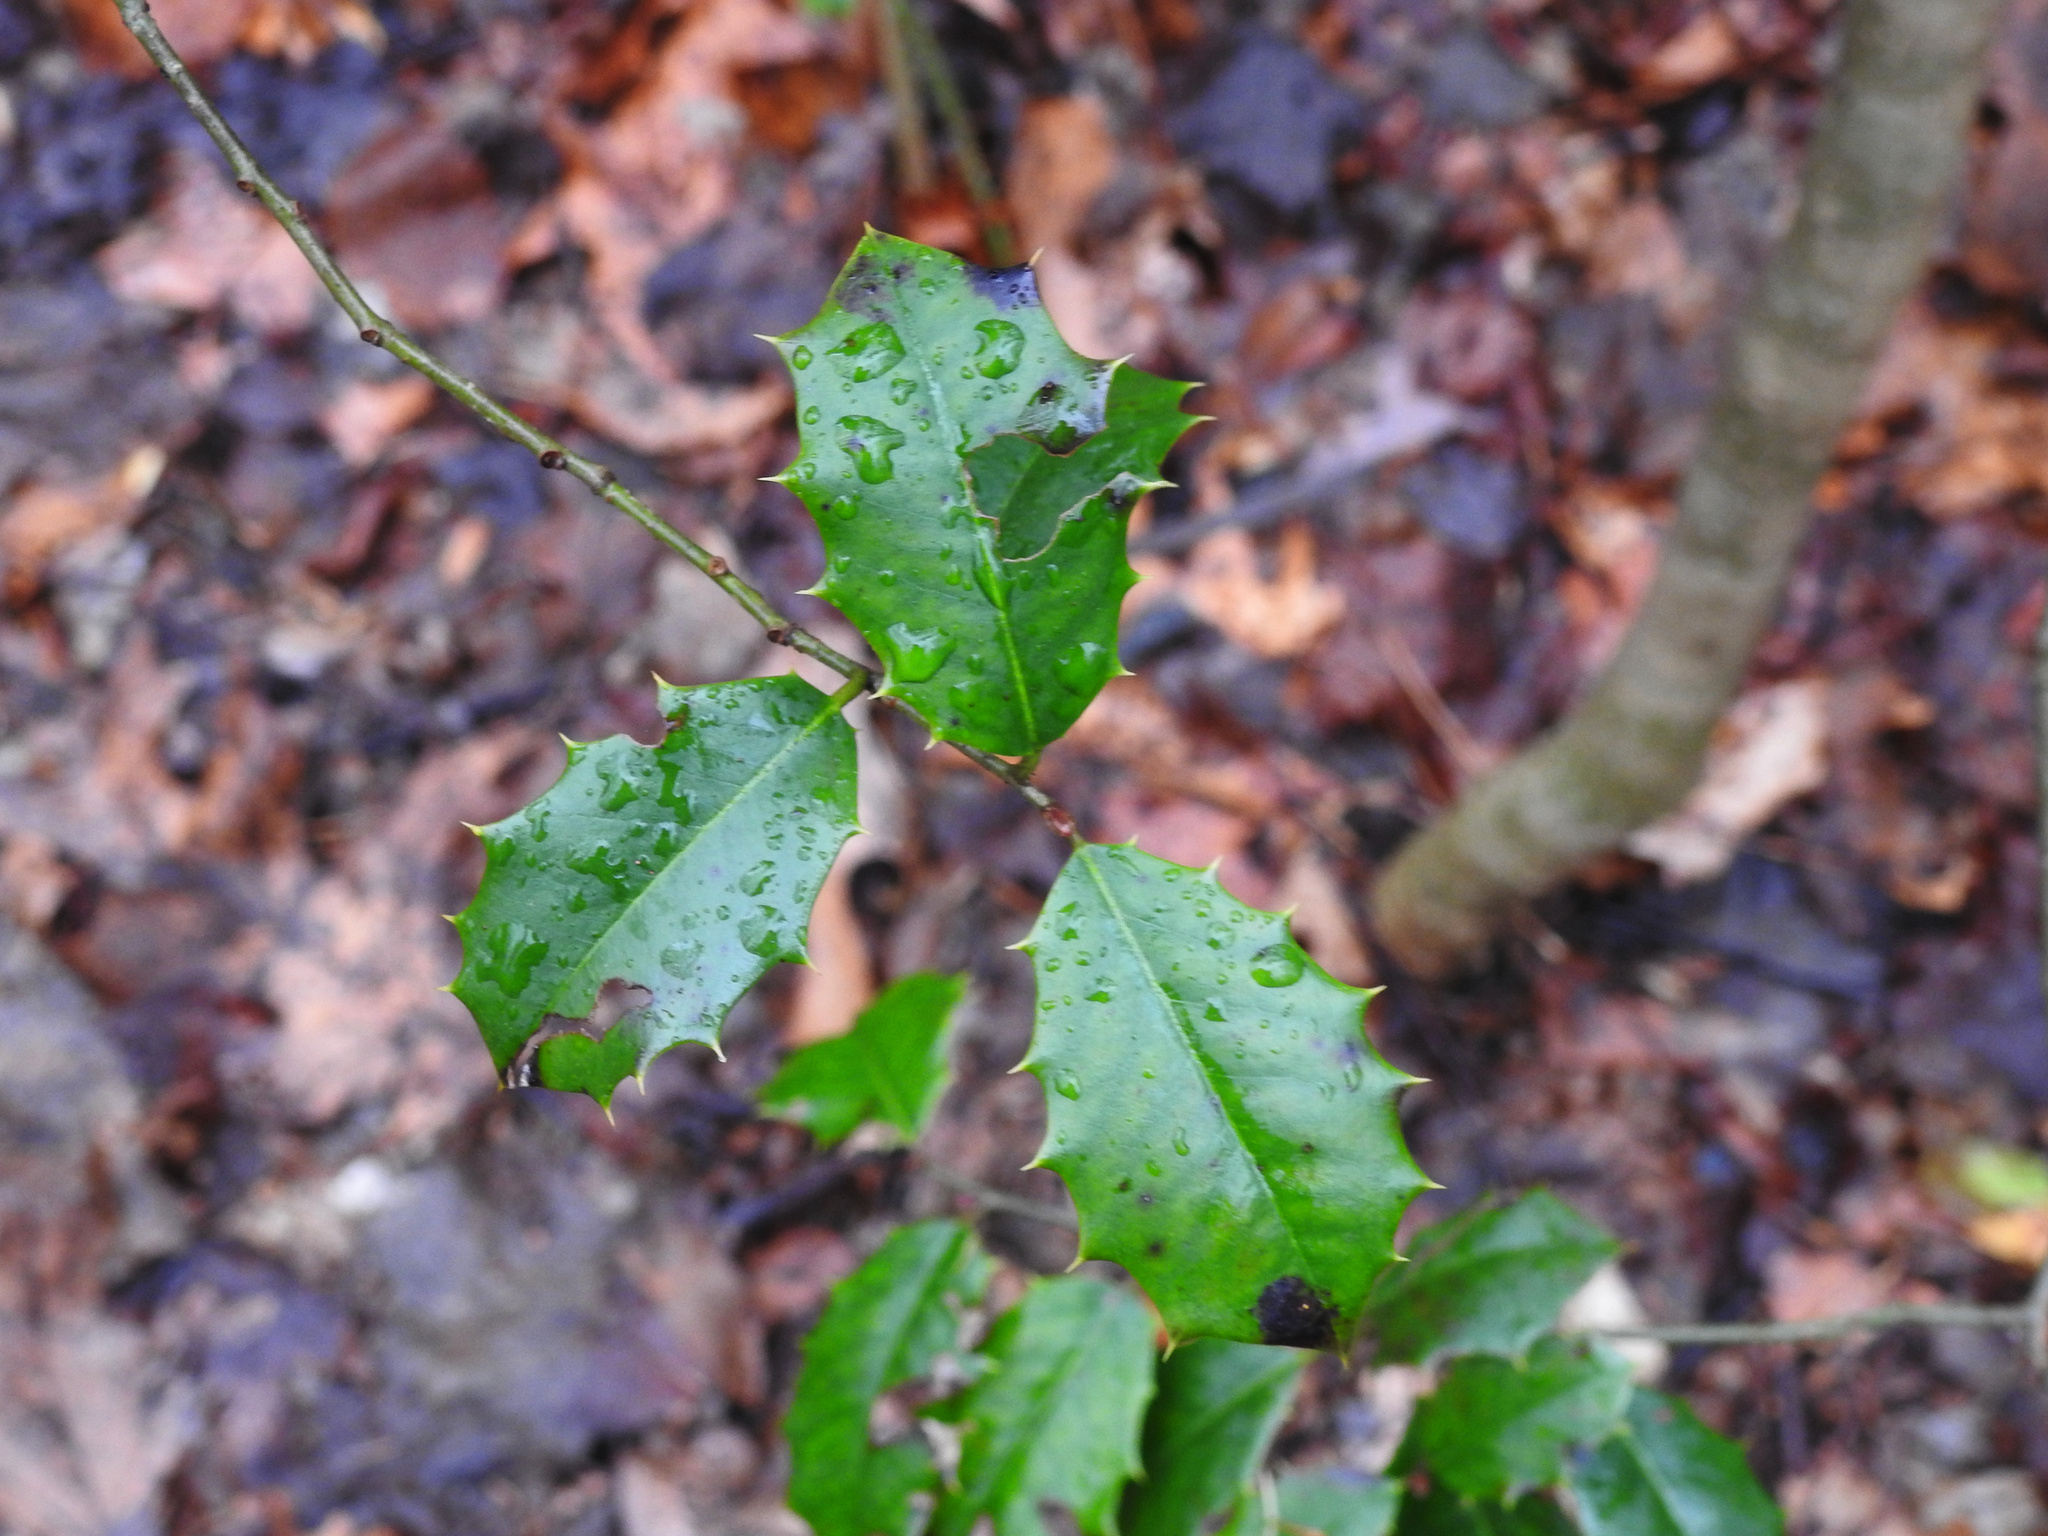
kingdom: Plantae
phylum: Tracheophyta
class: Magnoliopsida
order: Aquifoliales
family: Aquifoliaceae
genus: Ilex
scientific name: Ilex opaca
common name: American holly
